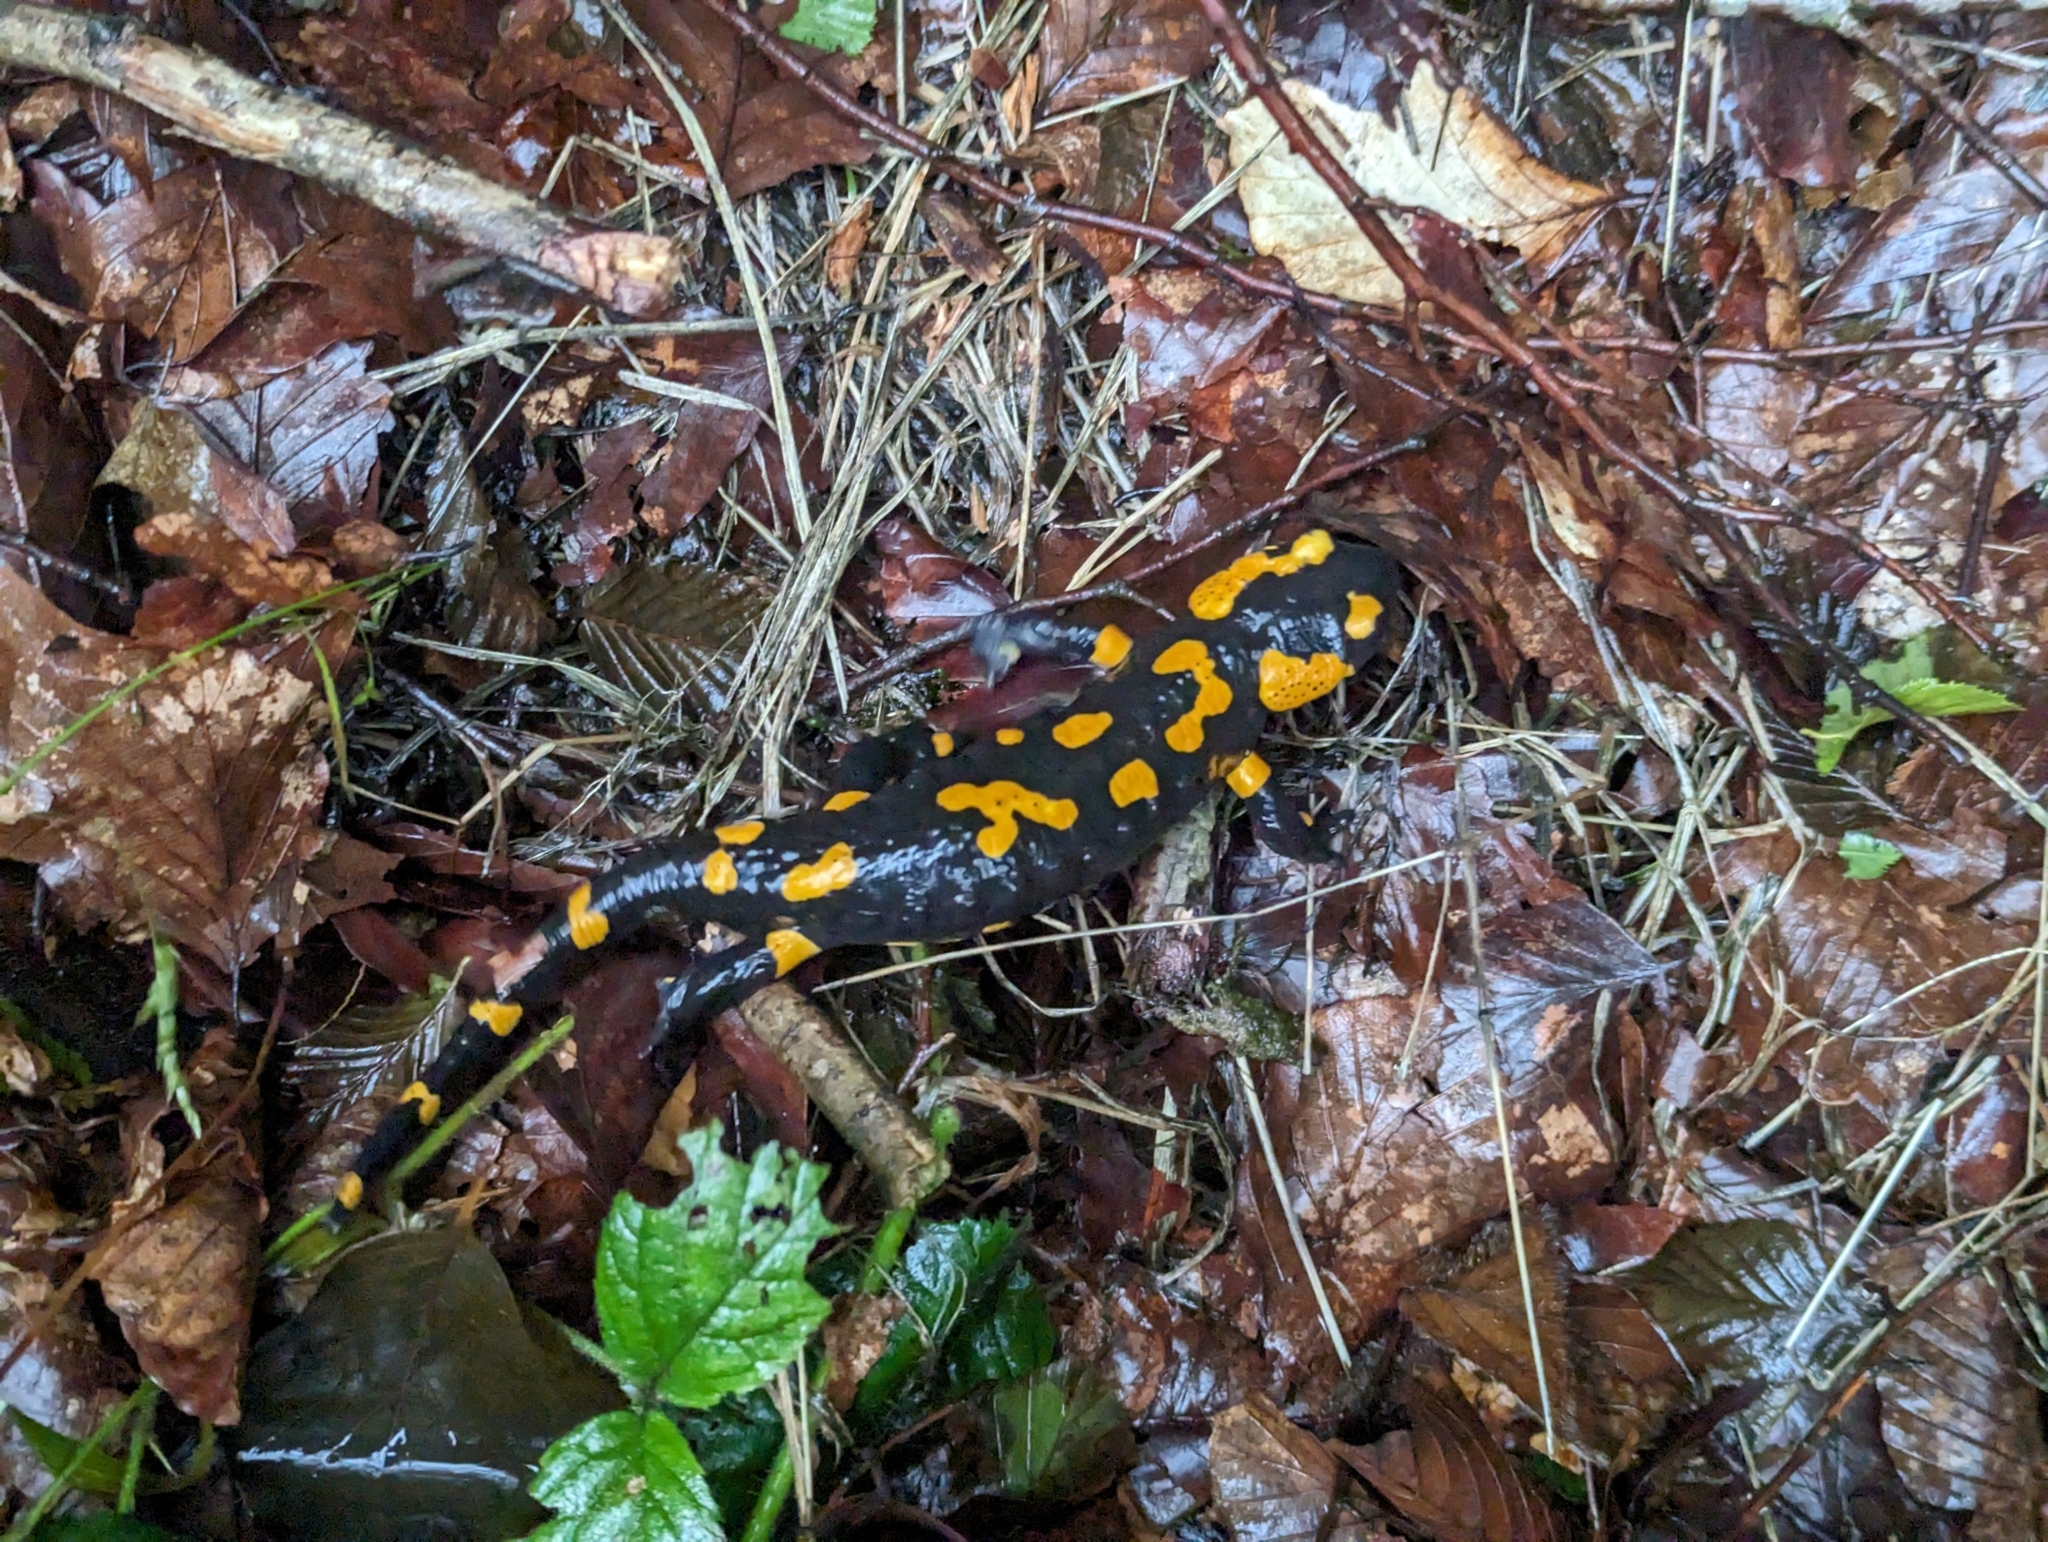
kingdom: Animalia
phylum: Chordata
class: Amphibia
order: Caudata
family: Salamandridae
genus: Salamandra
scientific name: Salamandra salamandra
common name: Fire salamander
